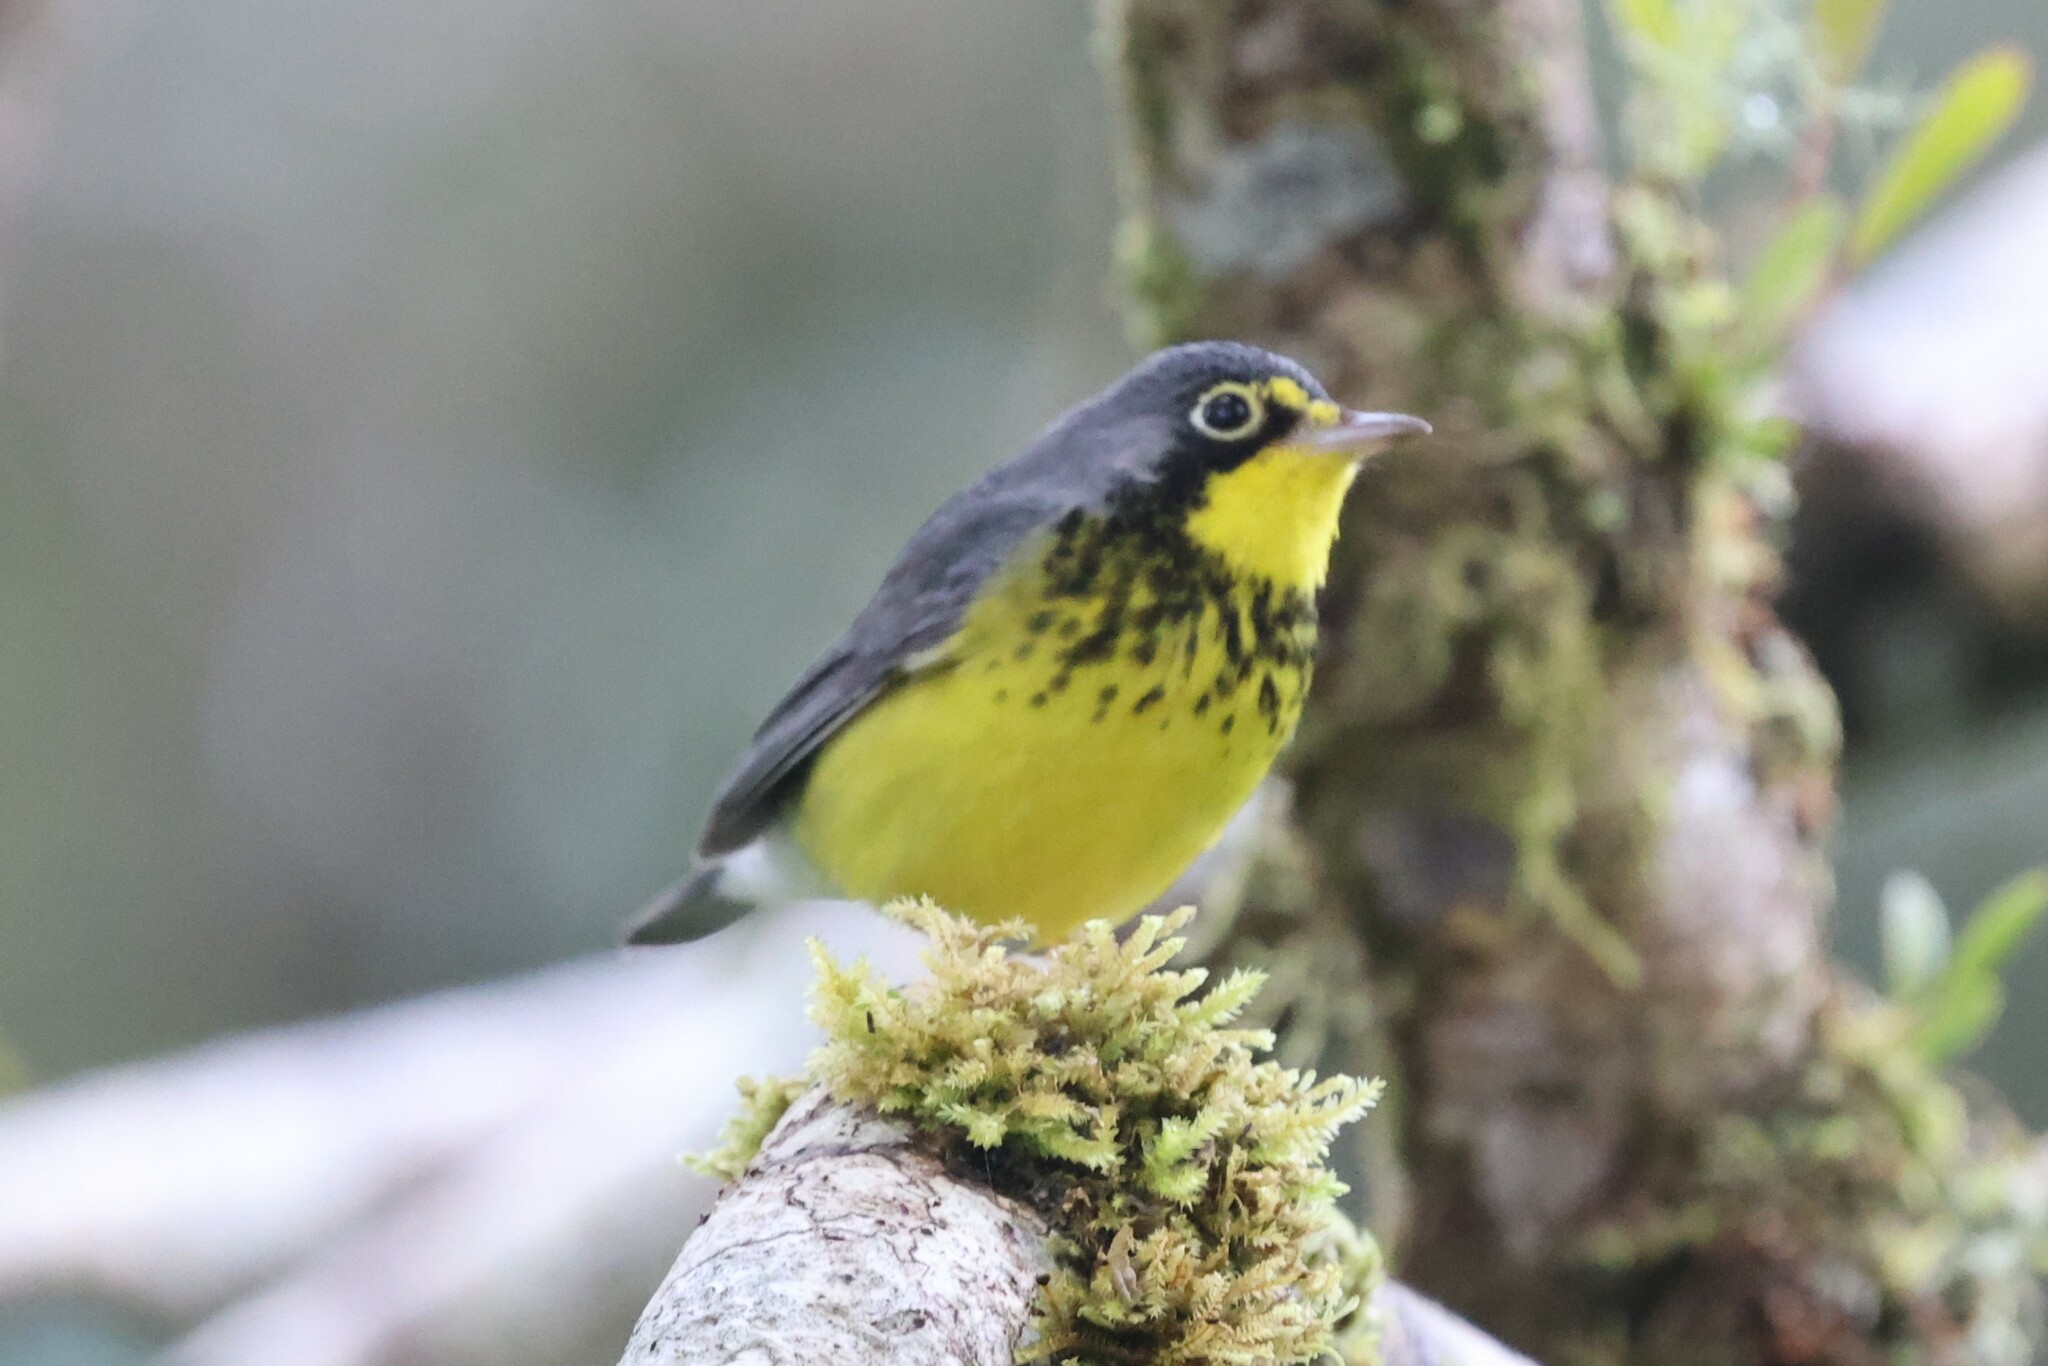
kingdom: Animalia
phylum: Chordata
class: Aves
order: Passeriformes
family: Parulidae
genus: Cardellina
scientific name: Cardellina canadensis
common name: Canada warbler
